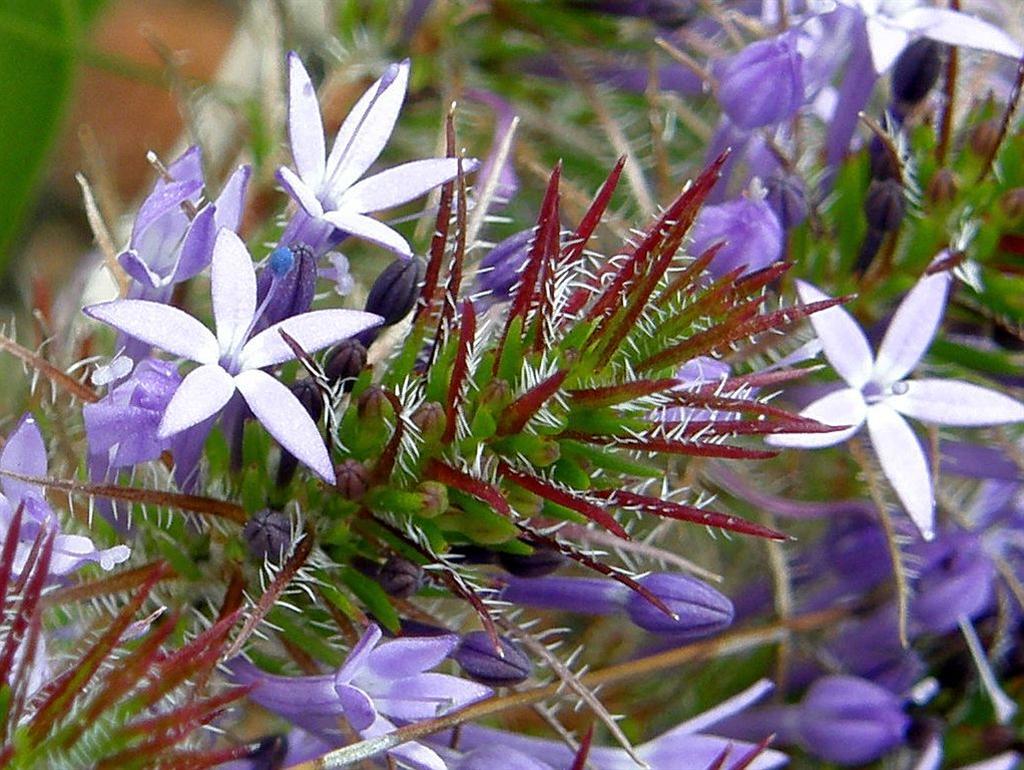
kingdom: Plantae
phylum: Tracheophyta
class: Magnoliopsida
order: Asterales
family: Campanulaceae
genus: Merciera
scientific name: Merciera eckloniana
